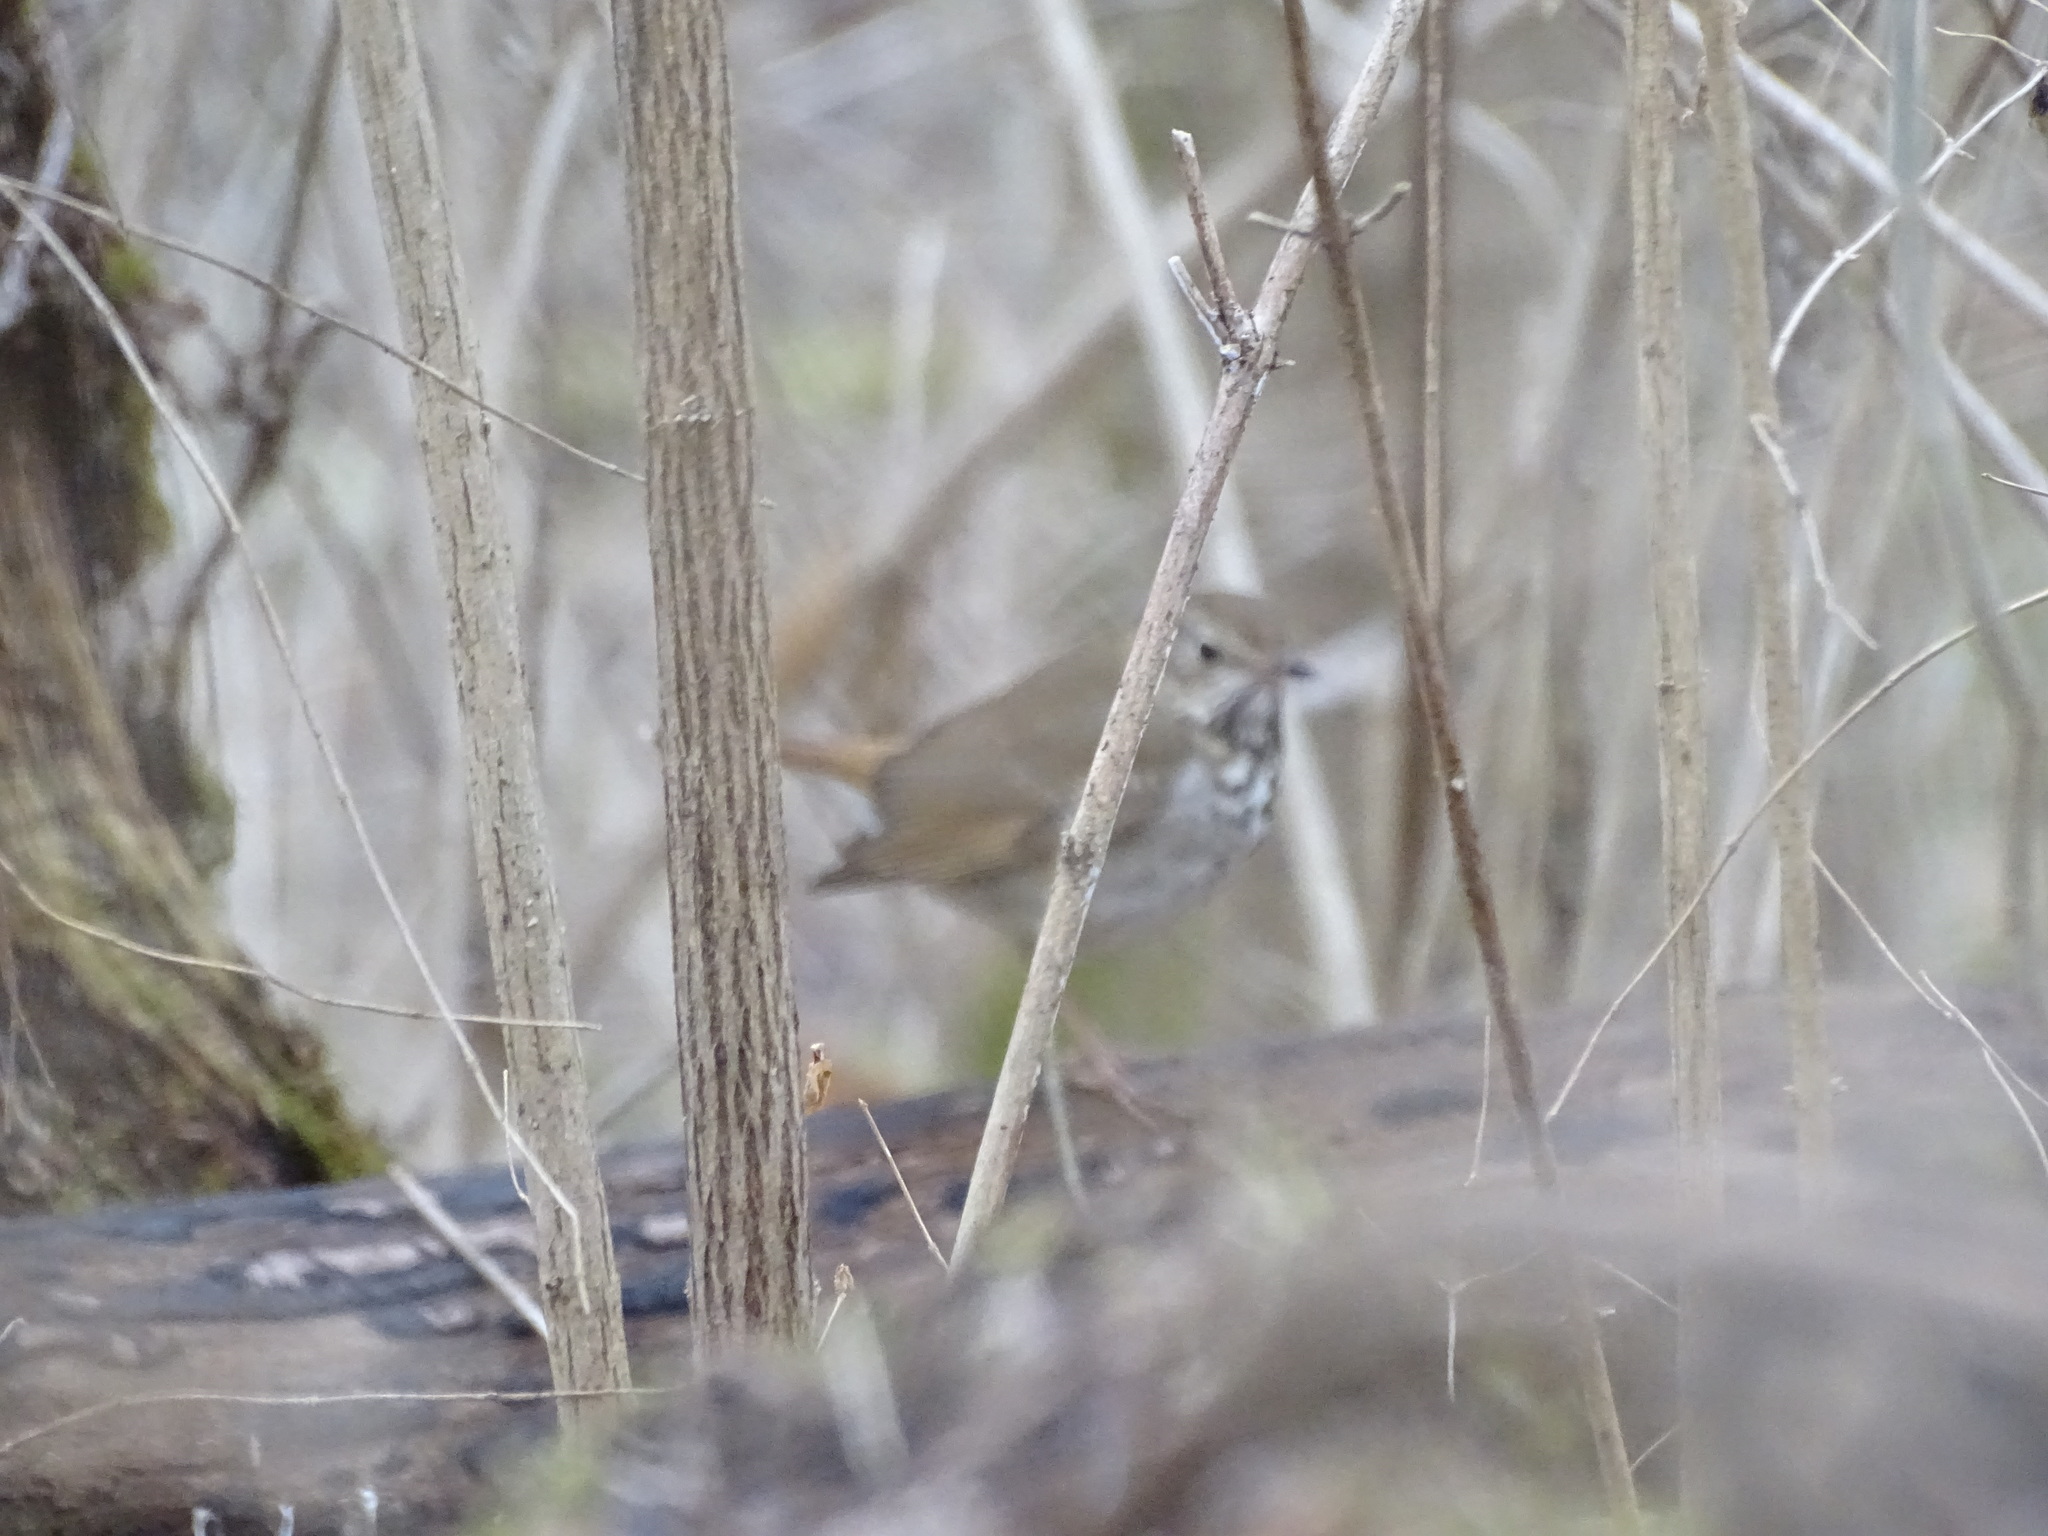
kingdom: Animalia
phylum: Chordata
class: Aves
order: Passeriformes
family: Turdidae
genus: Catharus
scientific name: Catharus guttatus
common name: Hermit thrush
